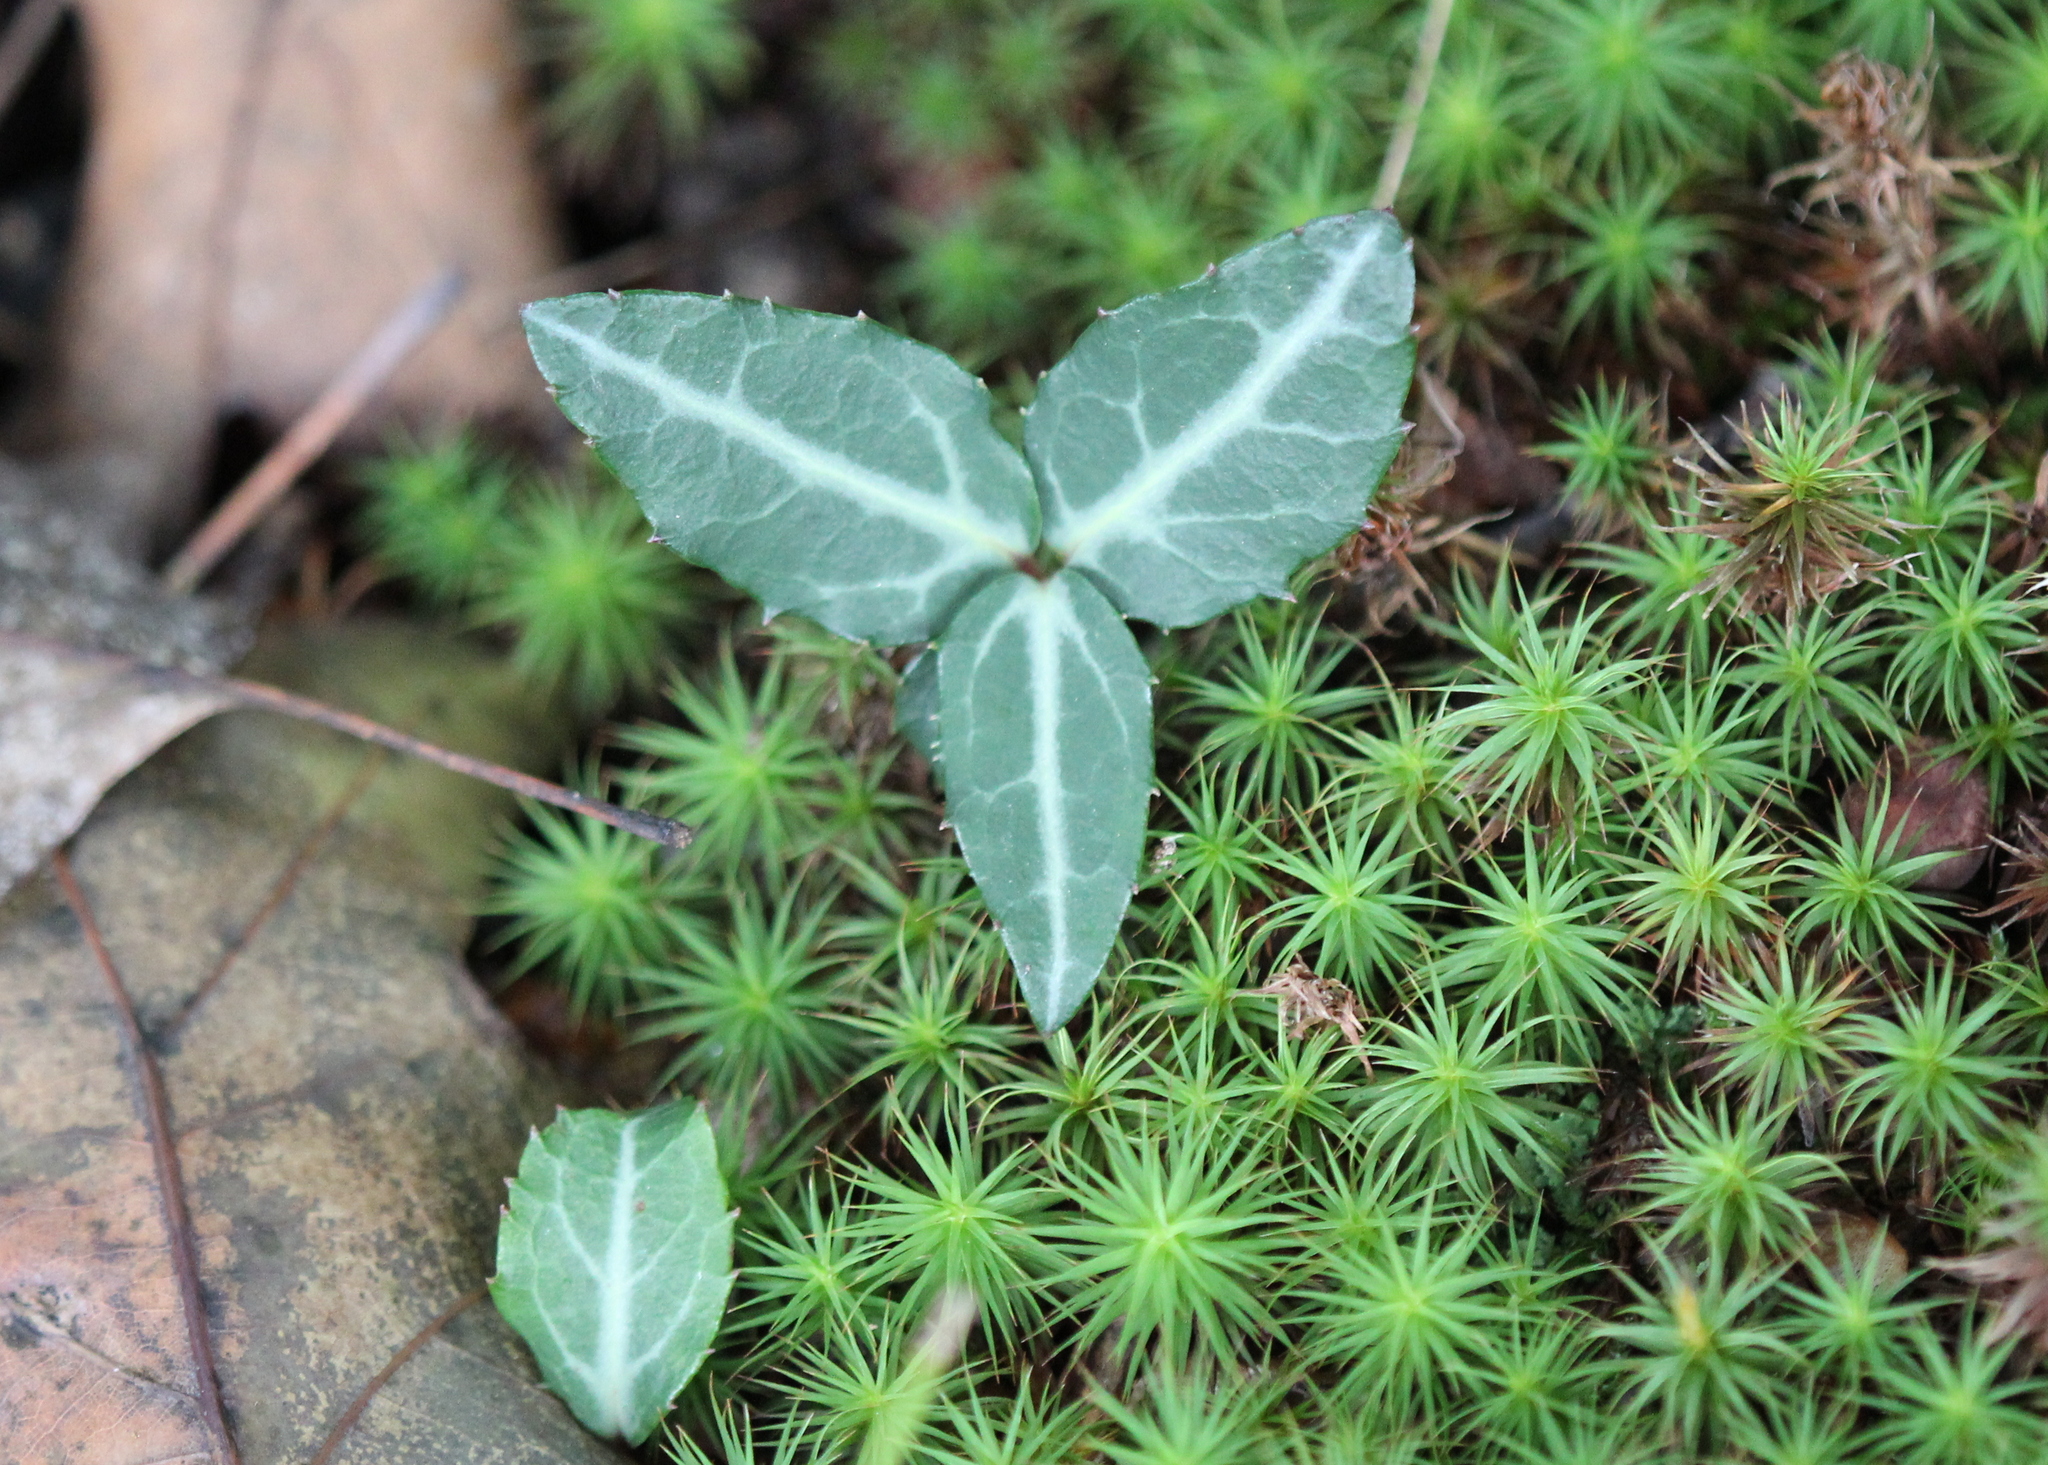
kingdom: Plantae
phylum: Tracheophyta
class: Magnoliopsida
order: Ericales
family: Ericaceae
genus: Chimaphila
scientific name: Chimaphila maculata
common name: Spotted pipsissewa
